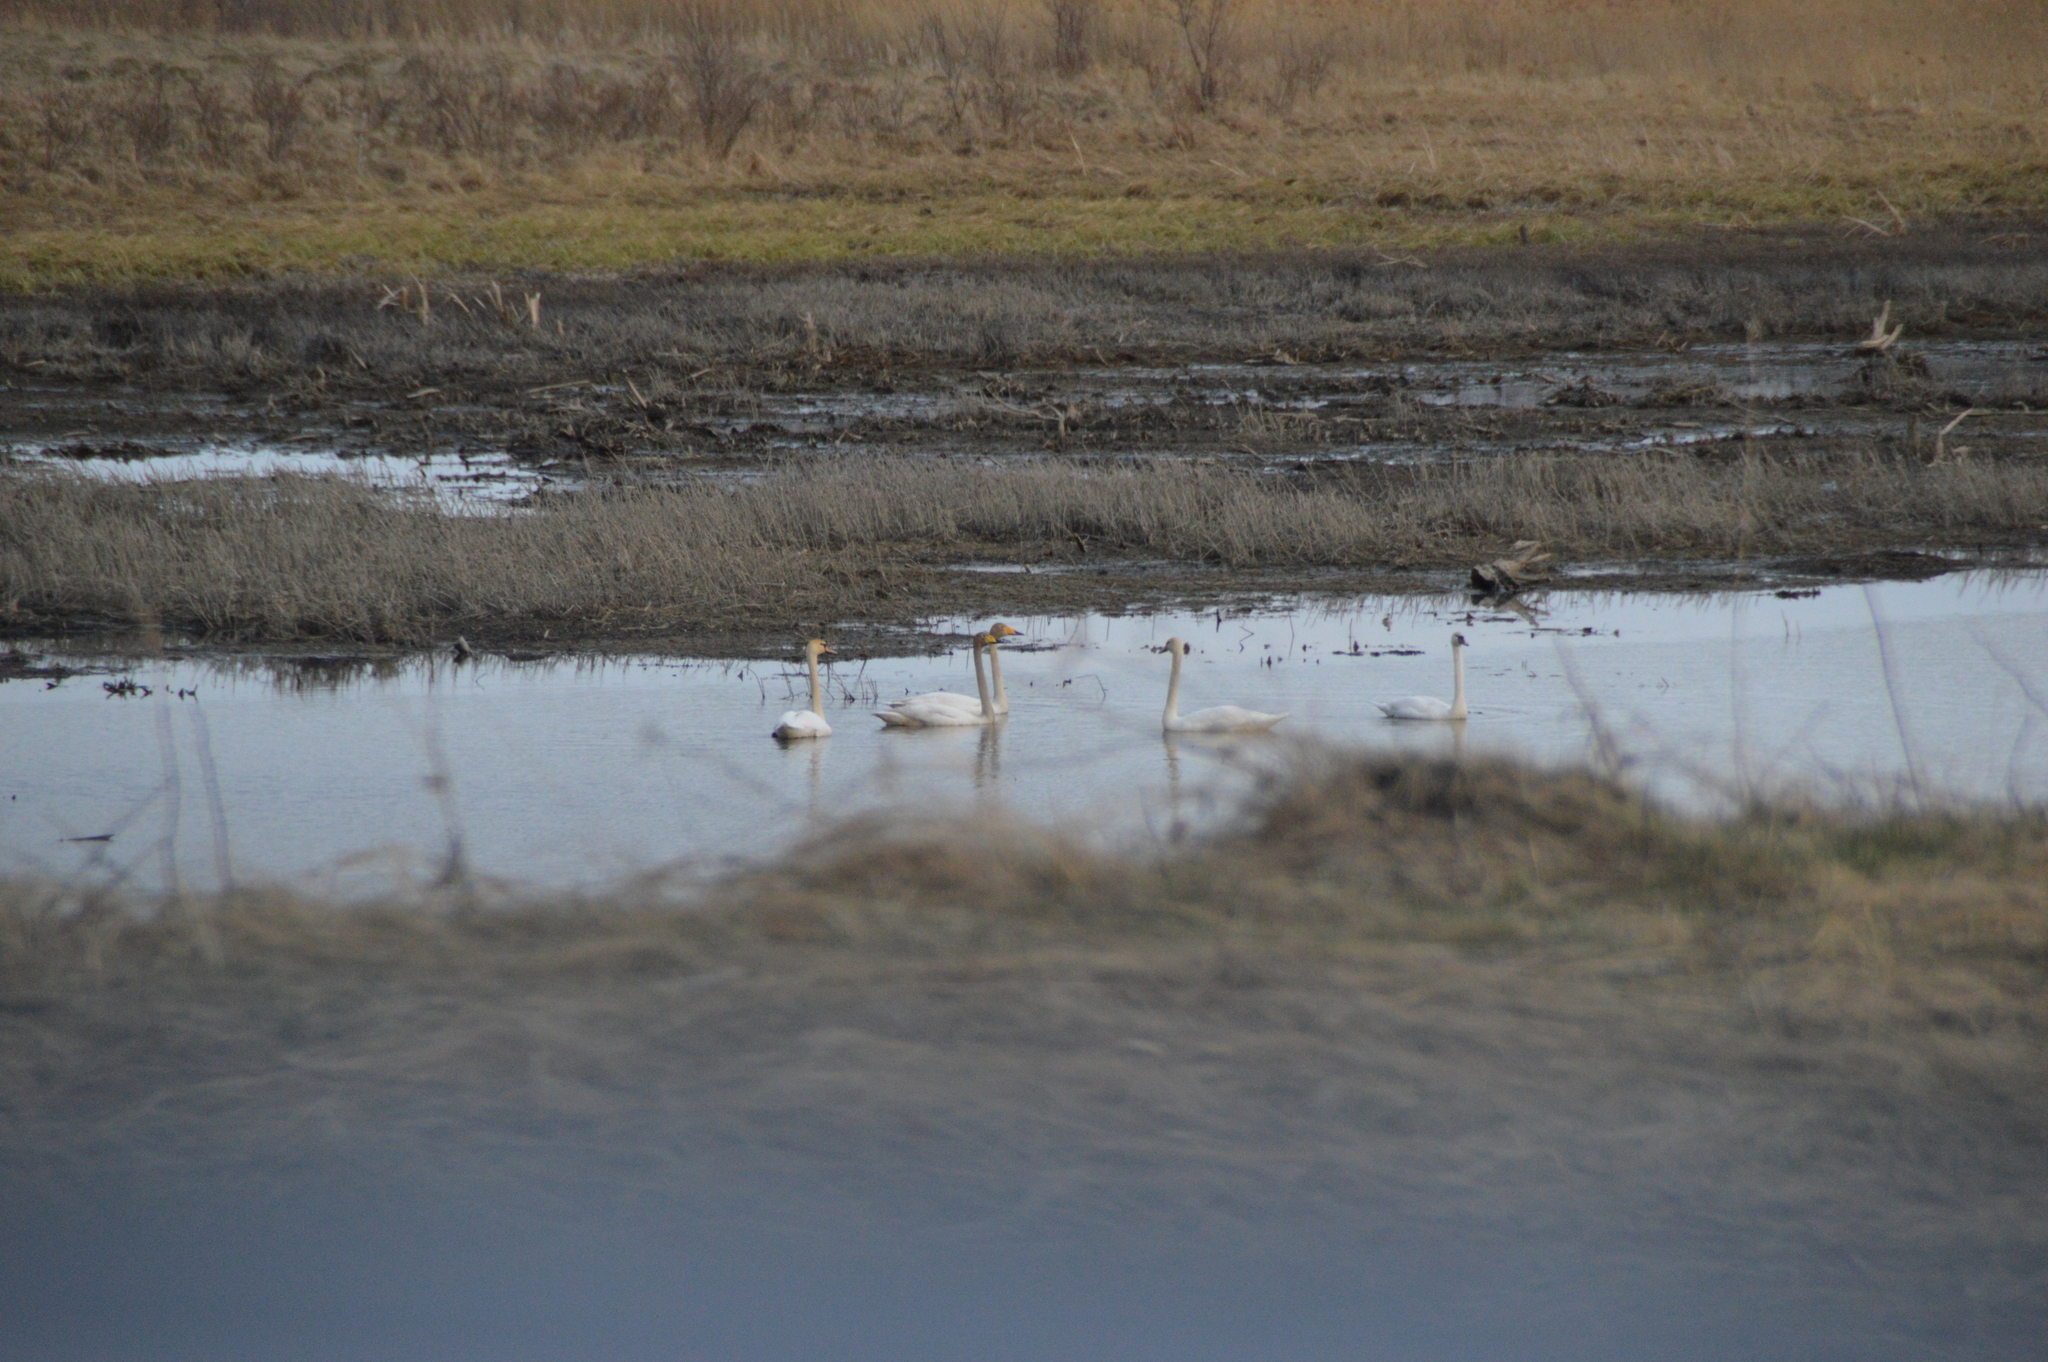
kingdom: Animalia
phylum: Chordata
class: Aves
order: Anseriformes
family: Anatidae
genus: Cygnus
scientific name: Cygnus cygnus
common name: Whooper swan
